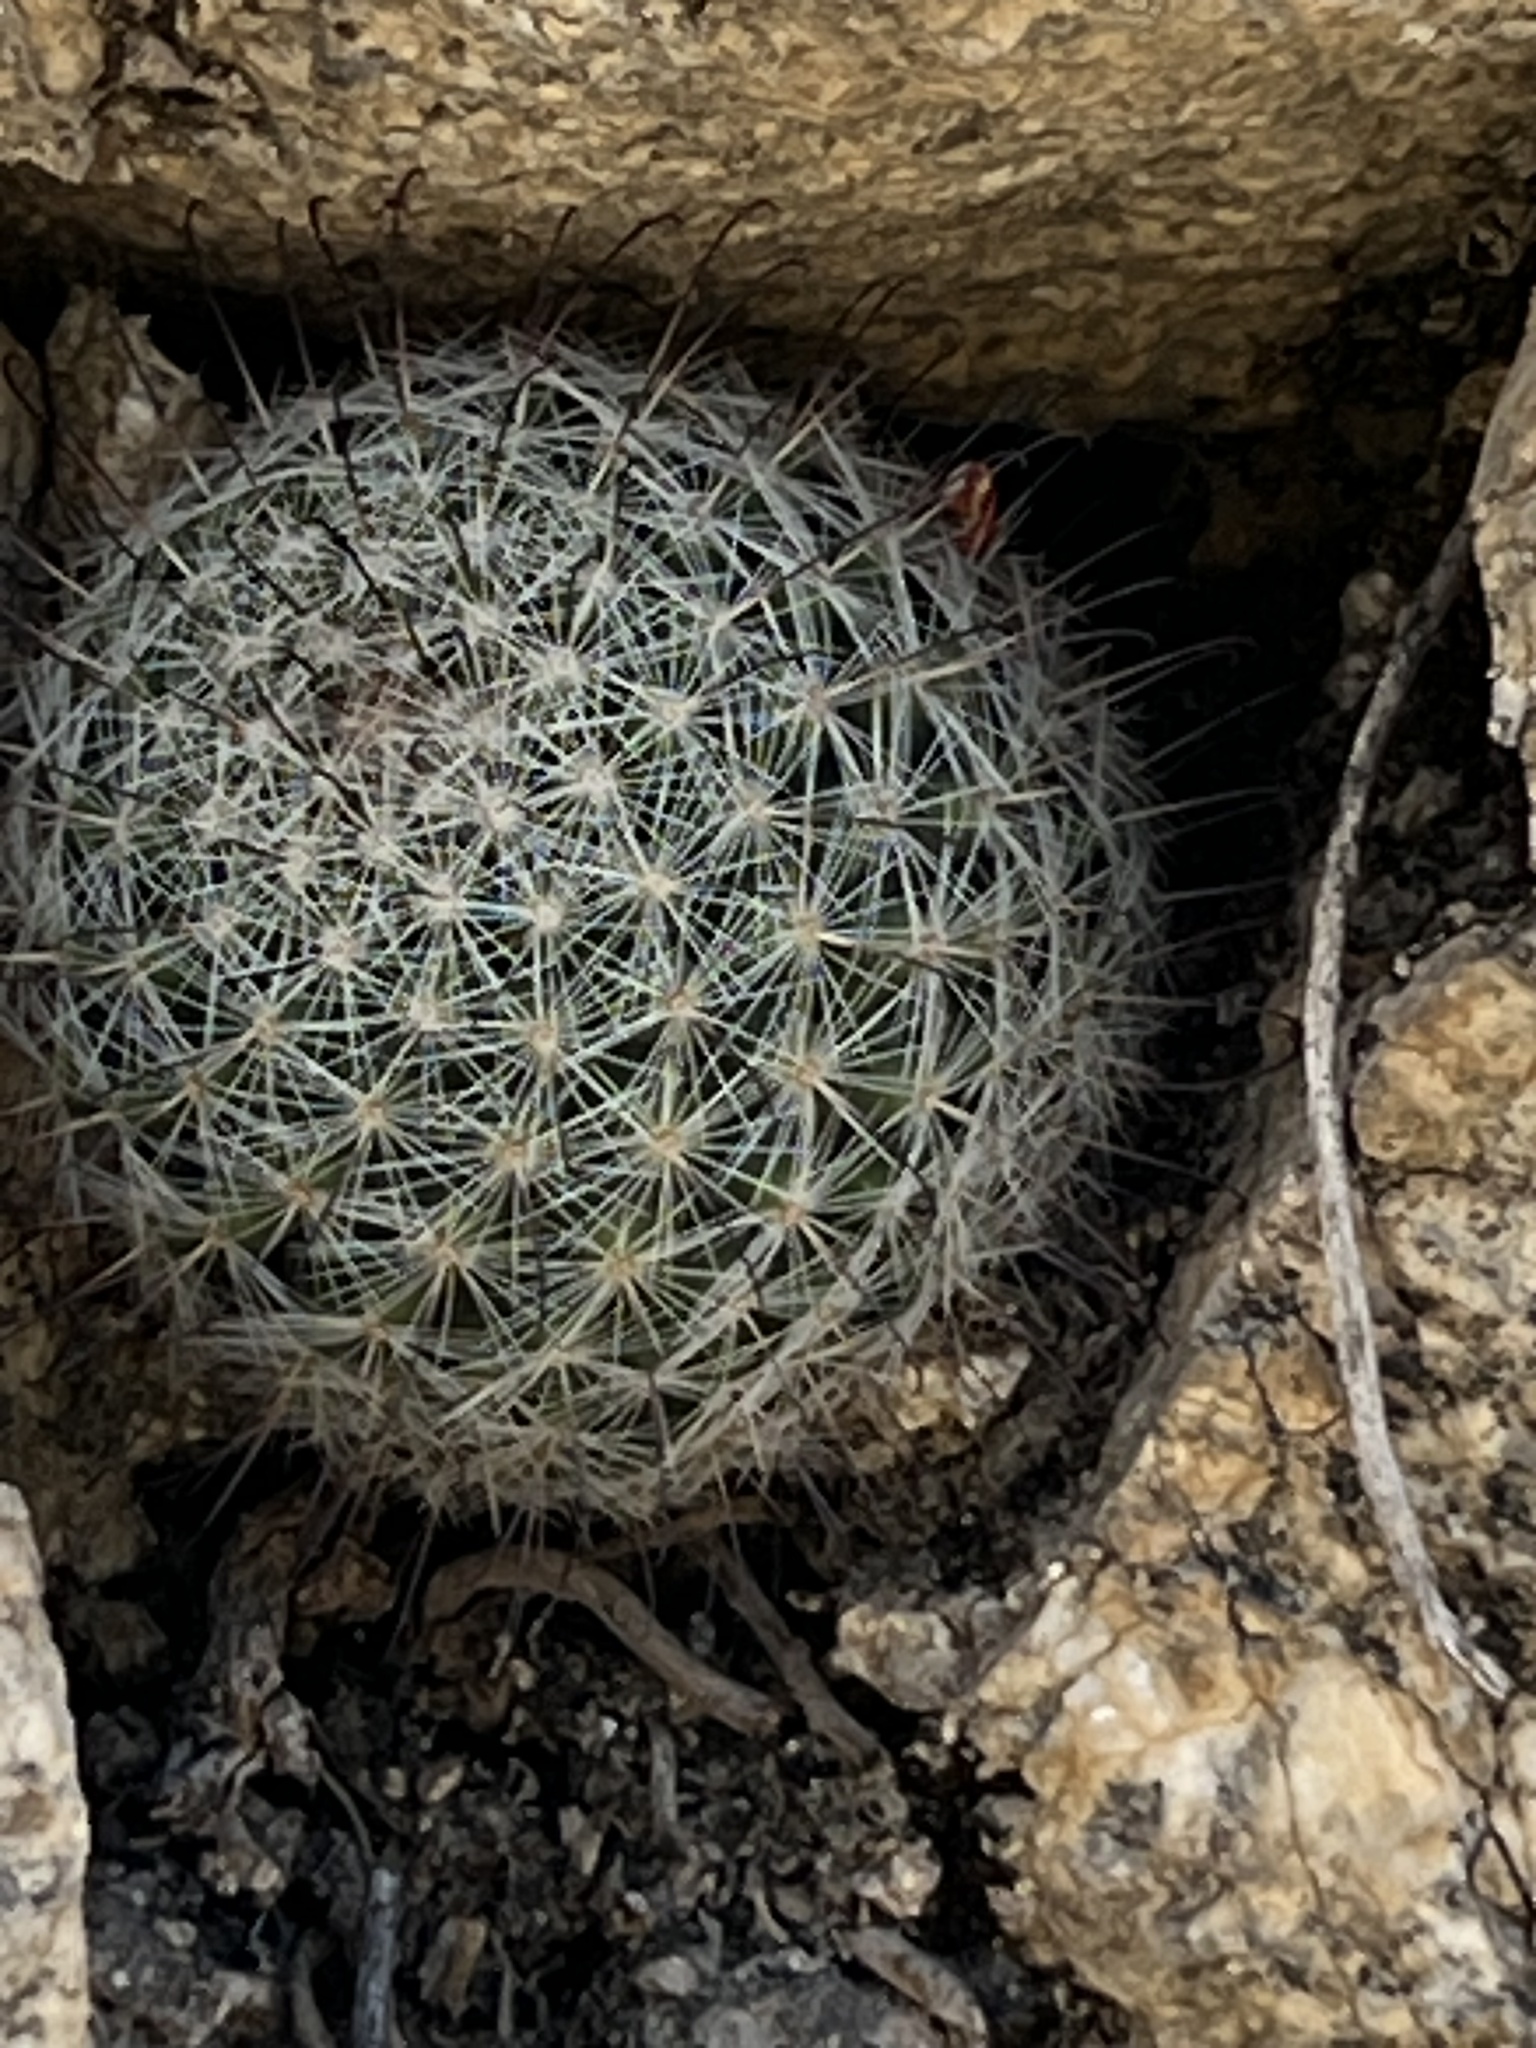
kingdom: Plantae
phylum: Tracheophyta
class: Magnoliopsida
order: Caryophyllales
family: Cactaceae
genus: Cochemiea
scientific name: Cochemiea grahamii
